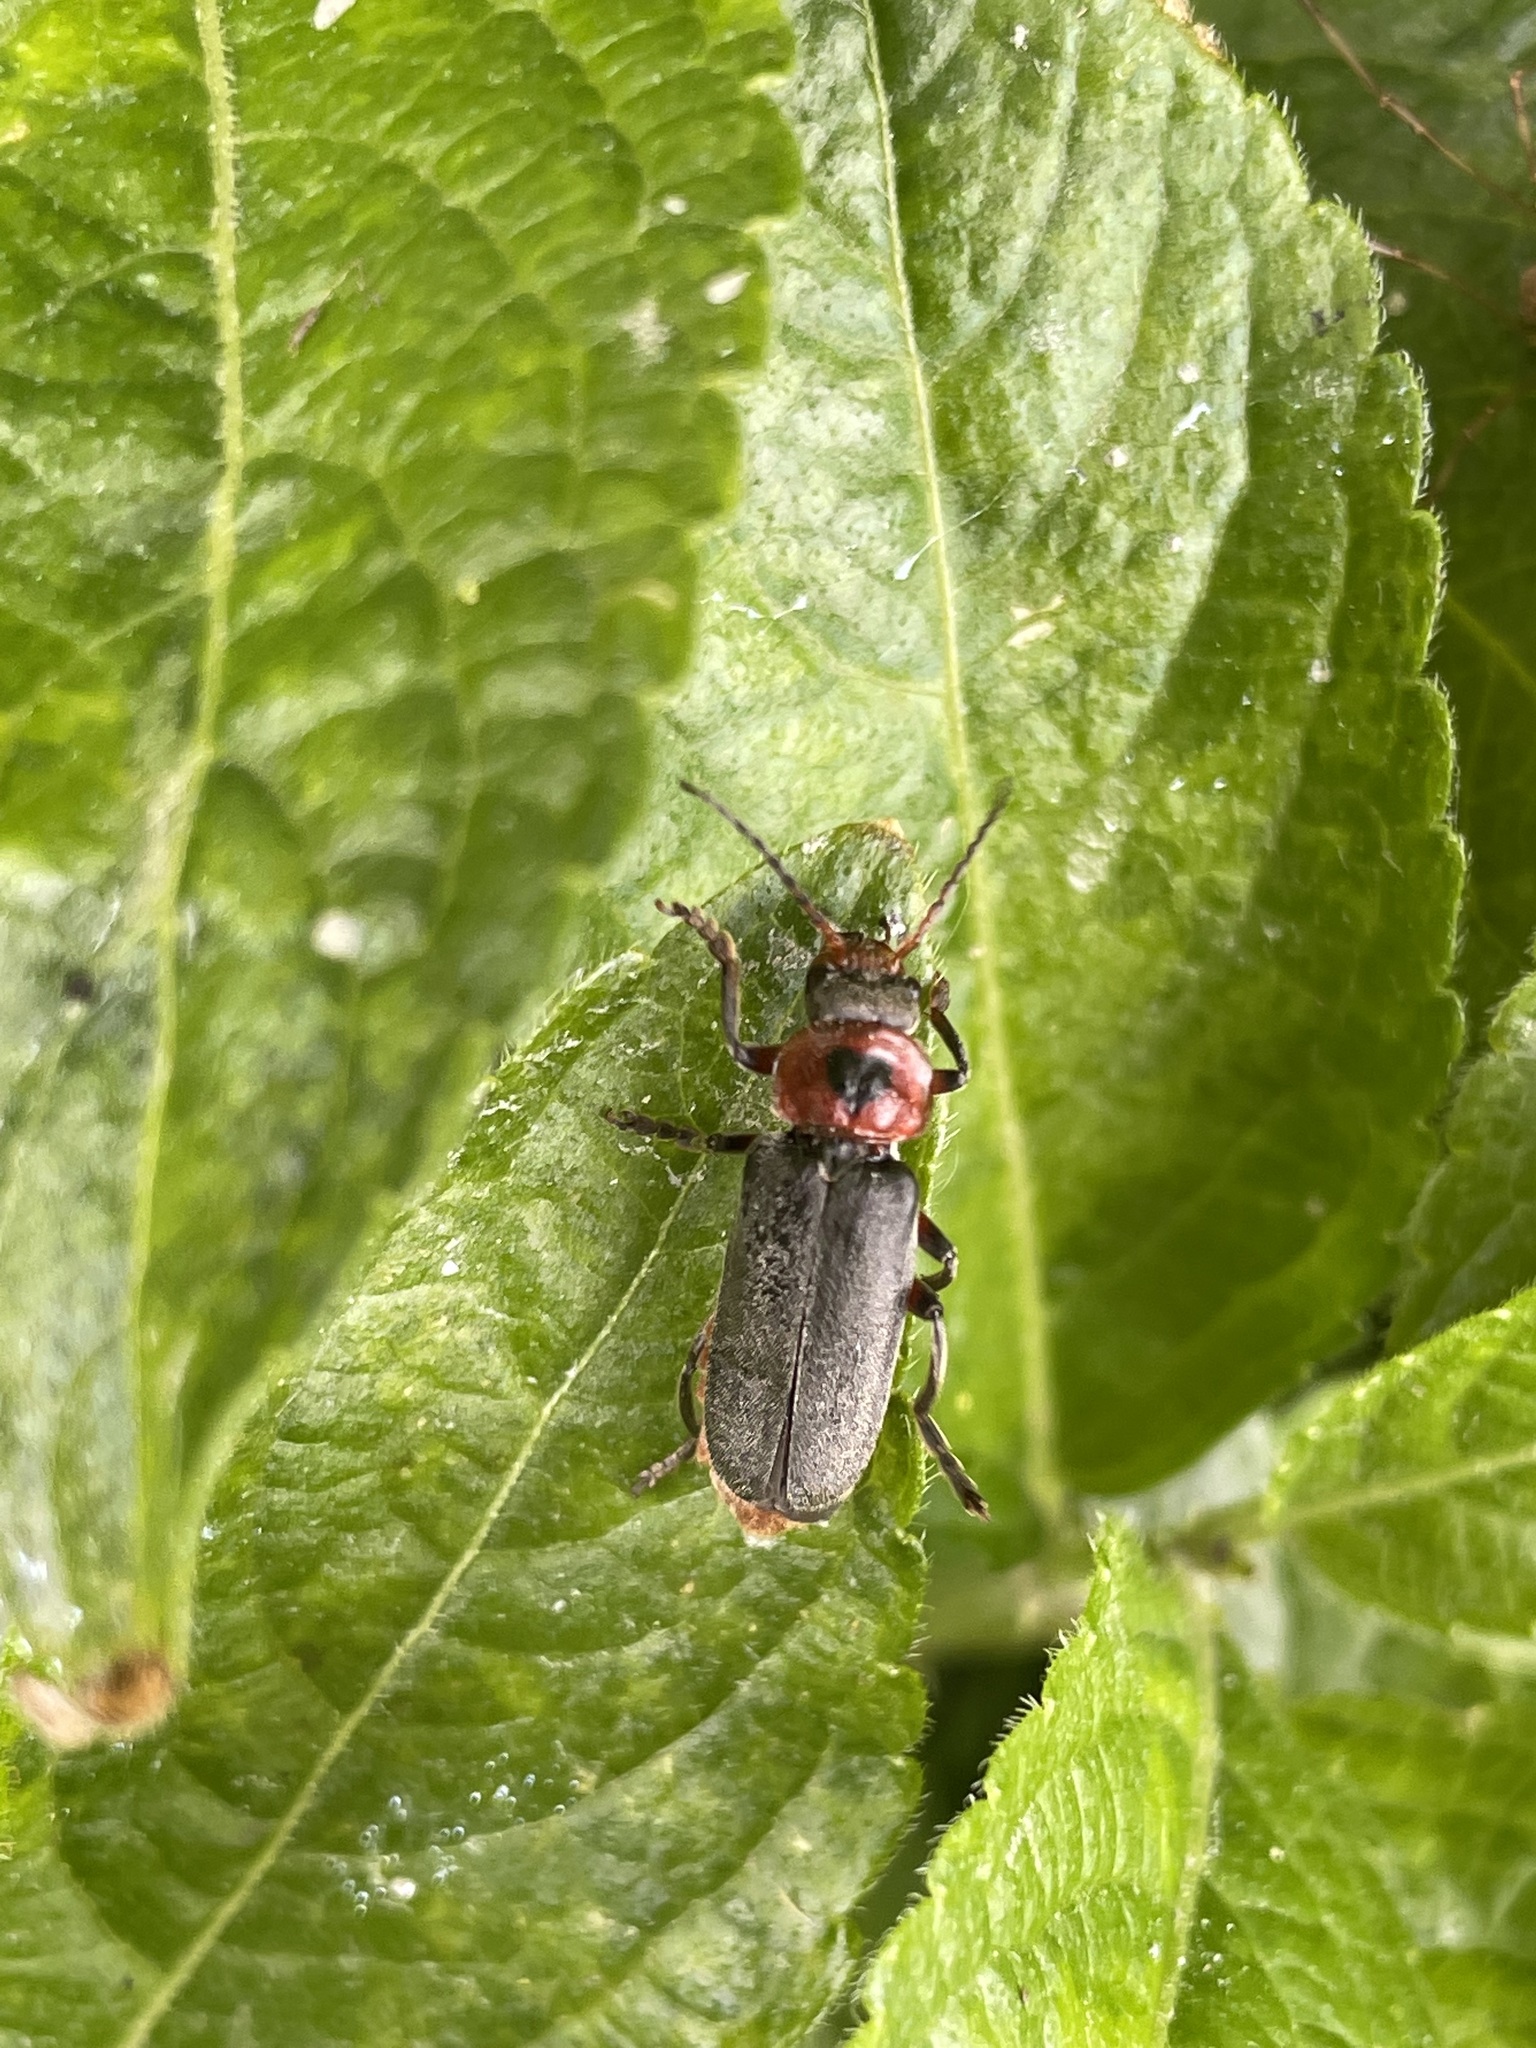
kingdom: Animalia
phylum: Arthropoda
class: Insecta
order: Coleoptera
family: Cantharidae
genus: Cantharis
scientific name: Cantharis rustica
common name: Soldier beetle
